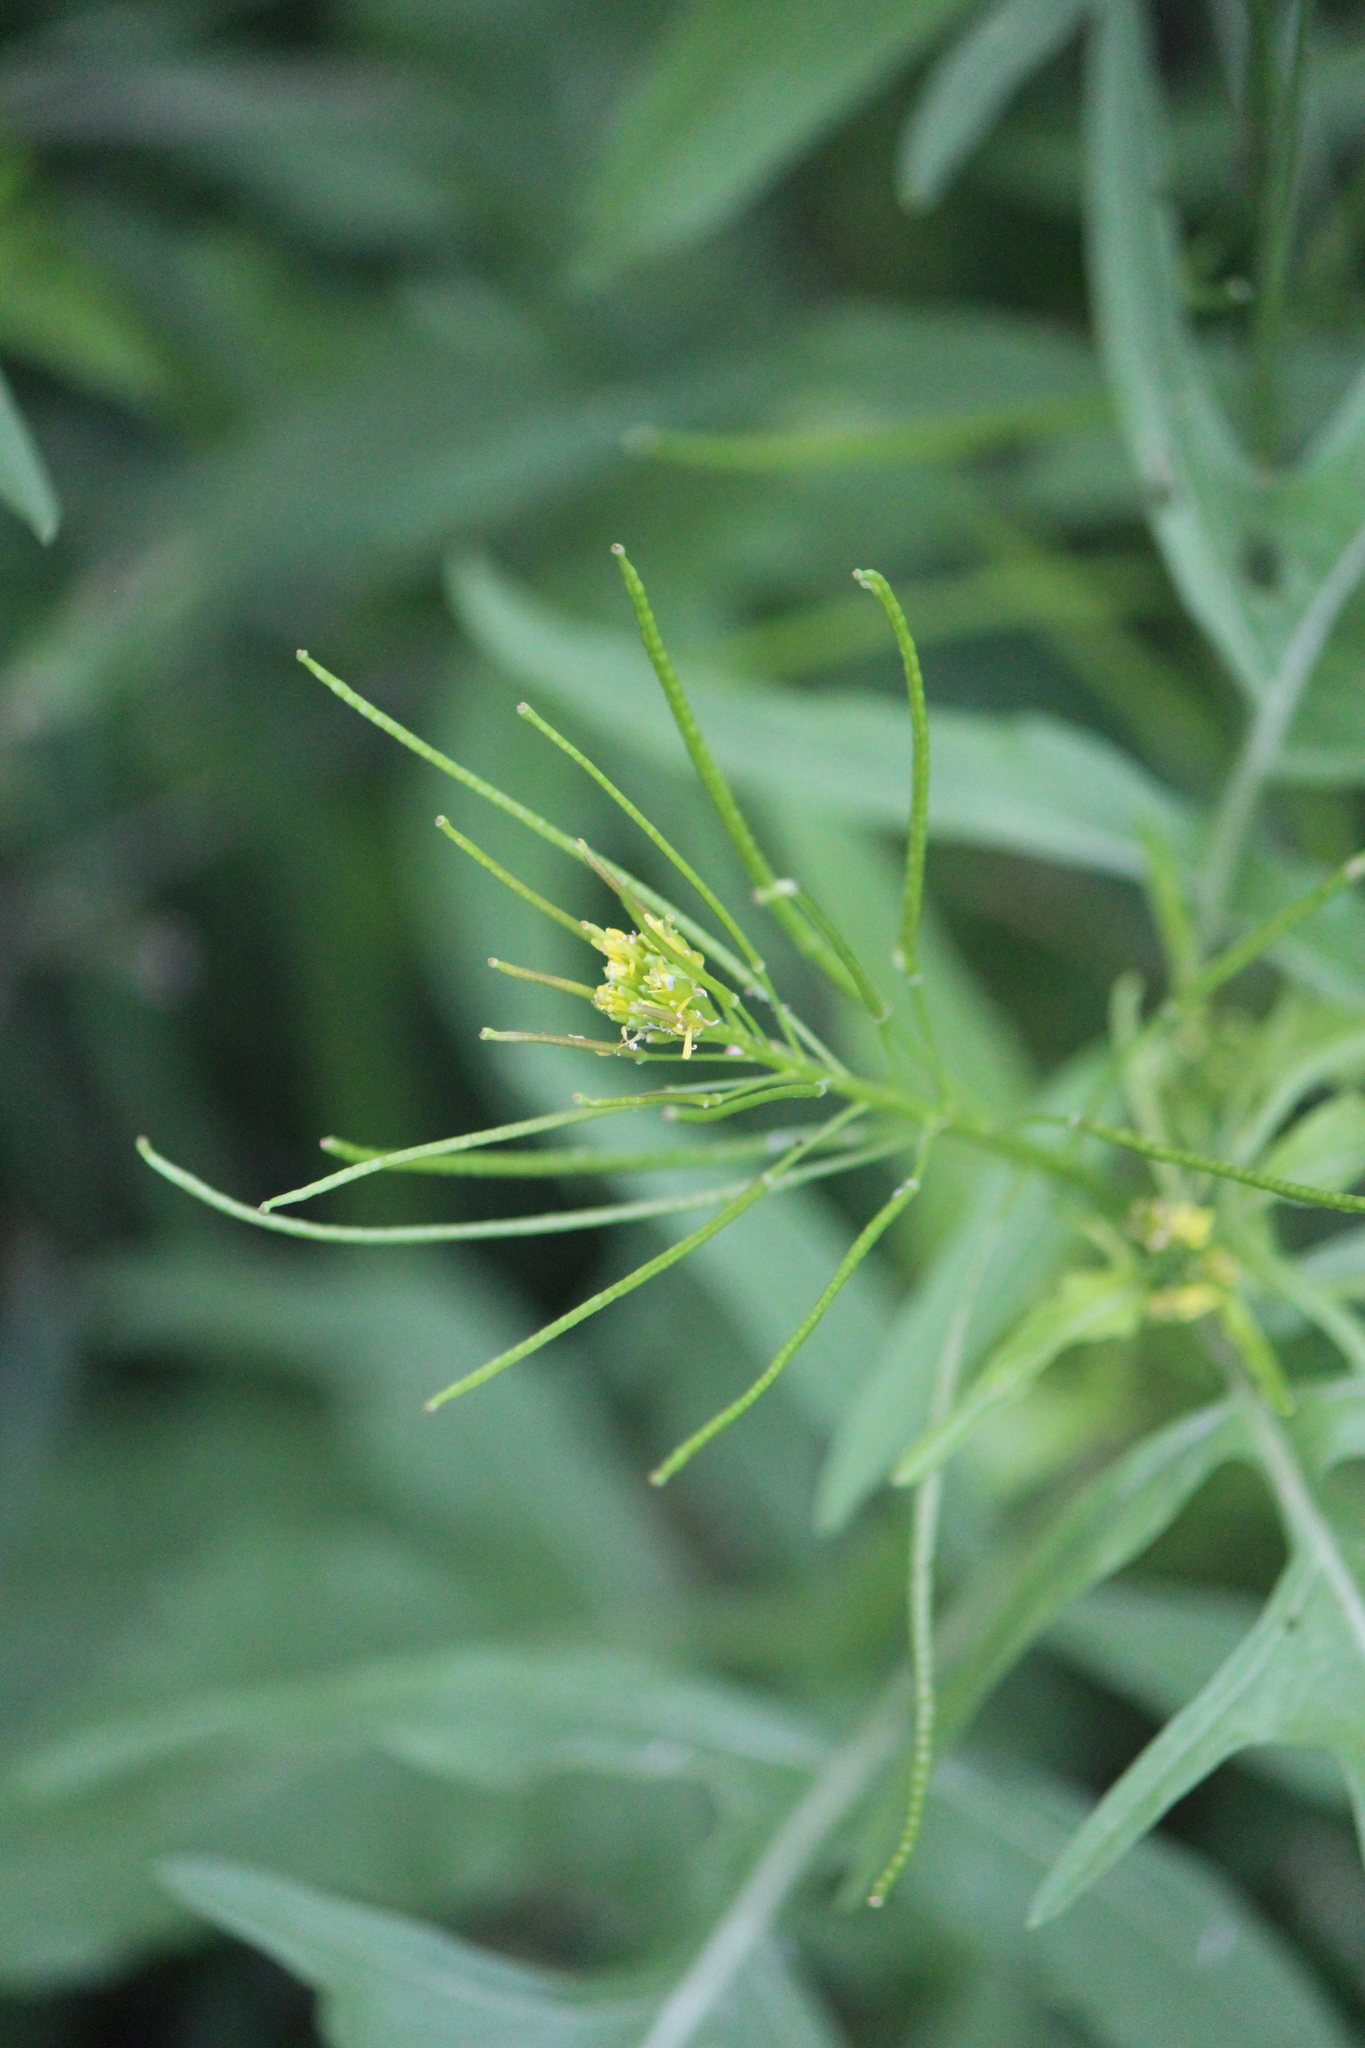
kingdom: Plantae
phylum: Tracheophyta
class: Magnoliopsida
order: Brassicales
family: Brassicaceae
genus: Sisymbrium
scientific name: Sisymbrium irio
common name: London rocket
